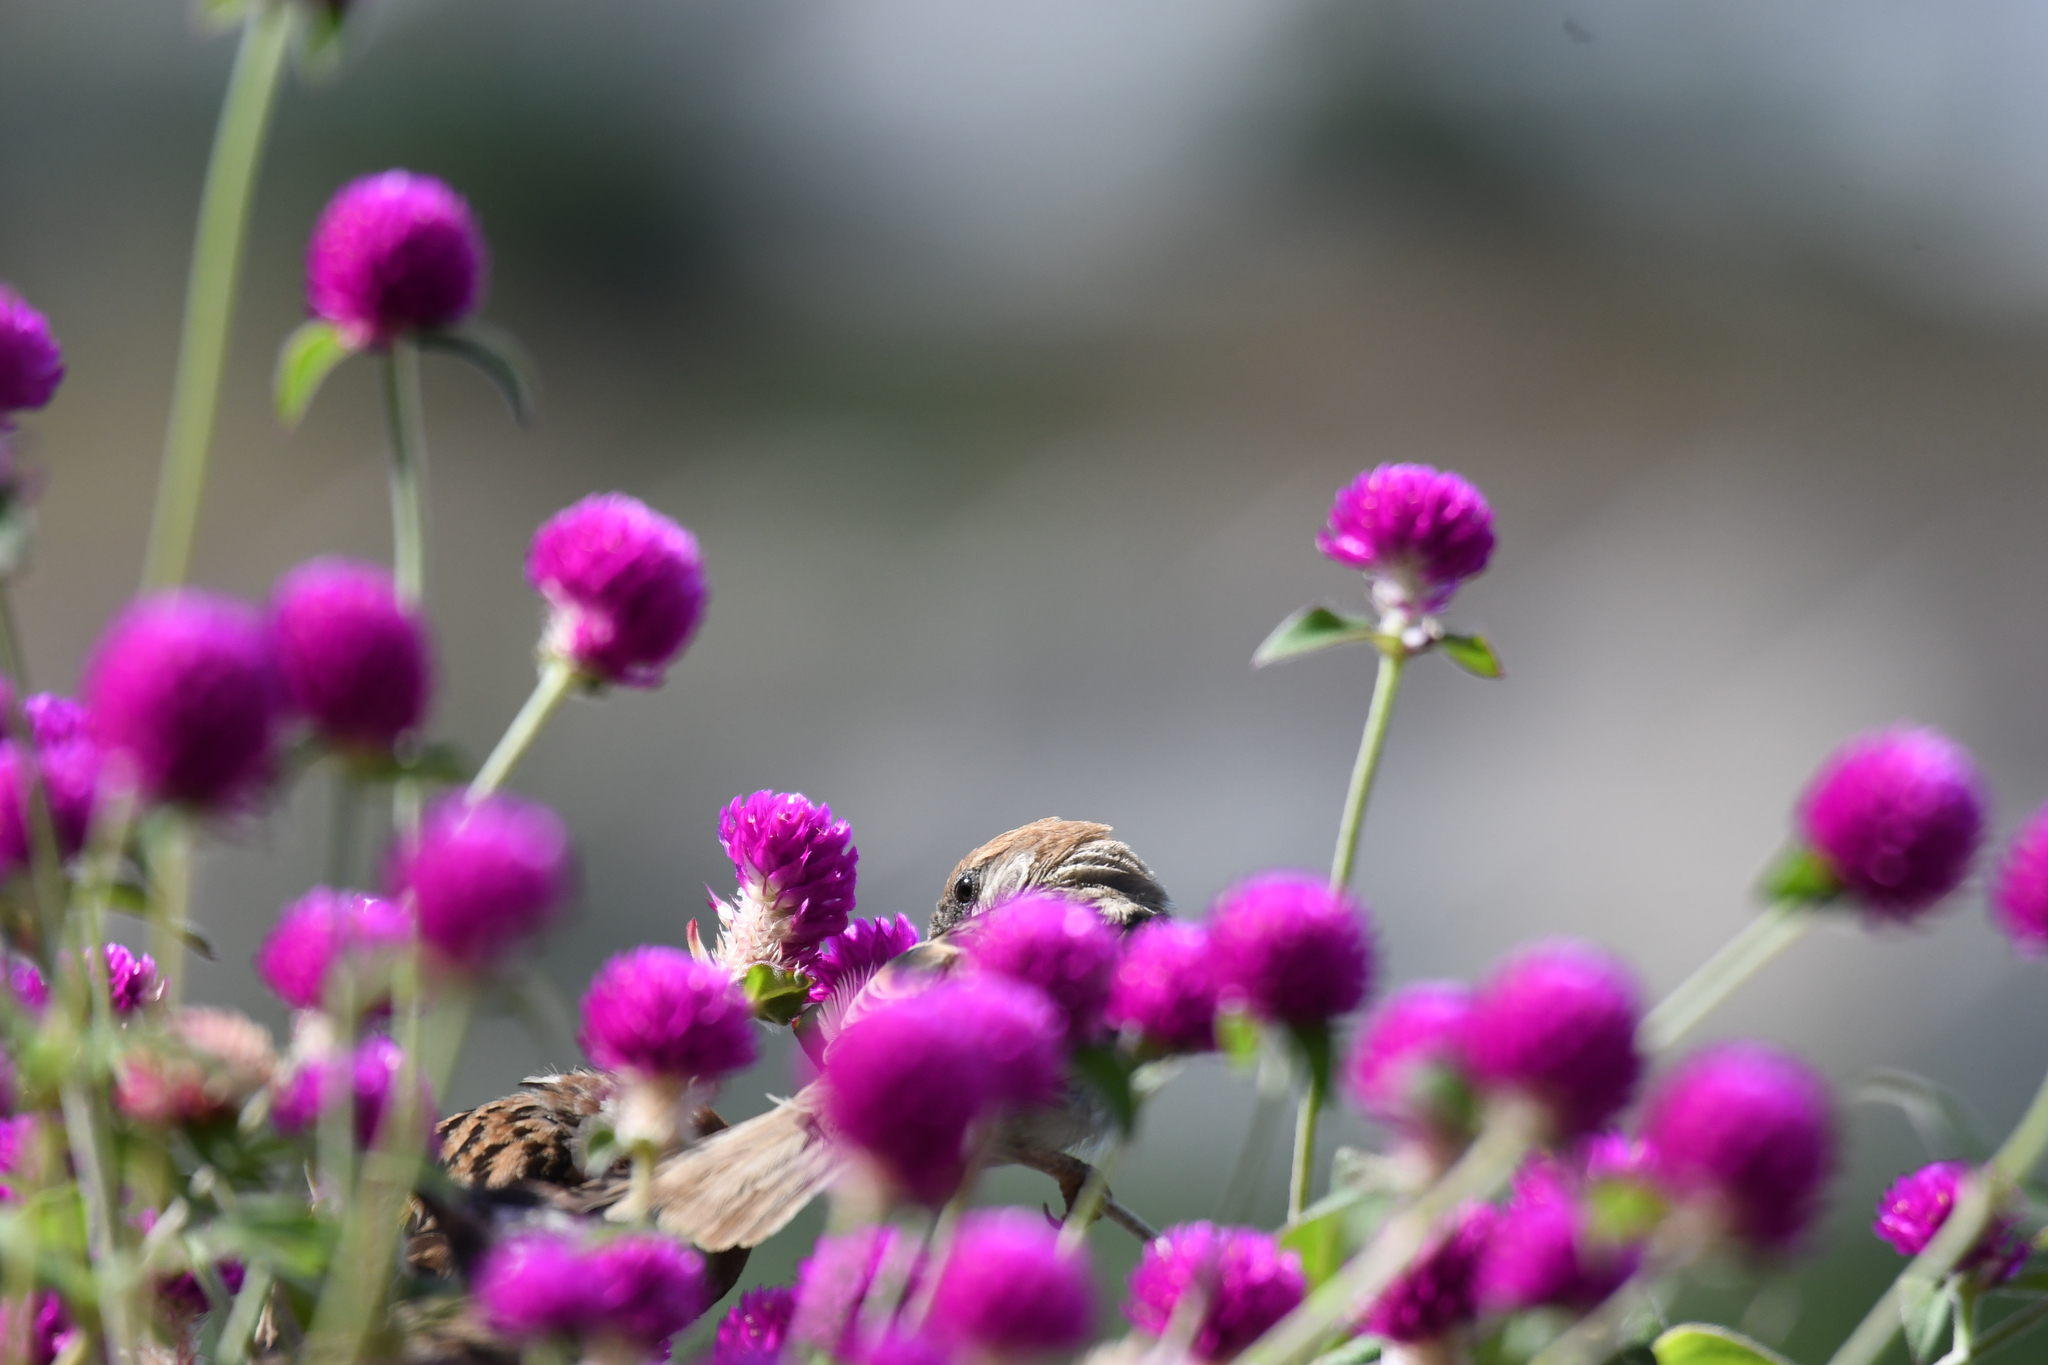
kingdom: Animalia
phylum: Chordata
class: Aves
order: Passeriformes
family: Passeridae
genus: Passer
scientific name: Passer montanus
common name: Eurasian tree sparrow
